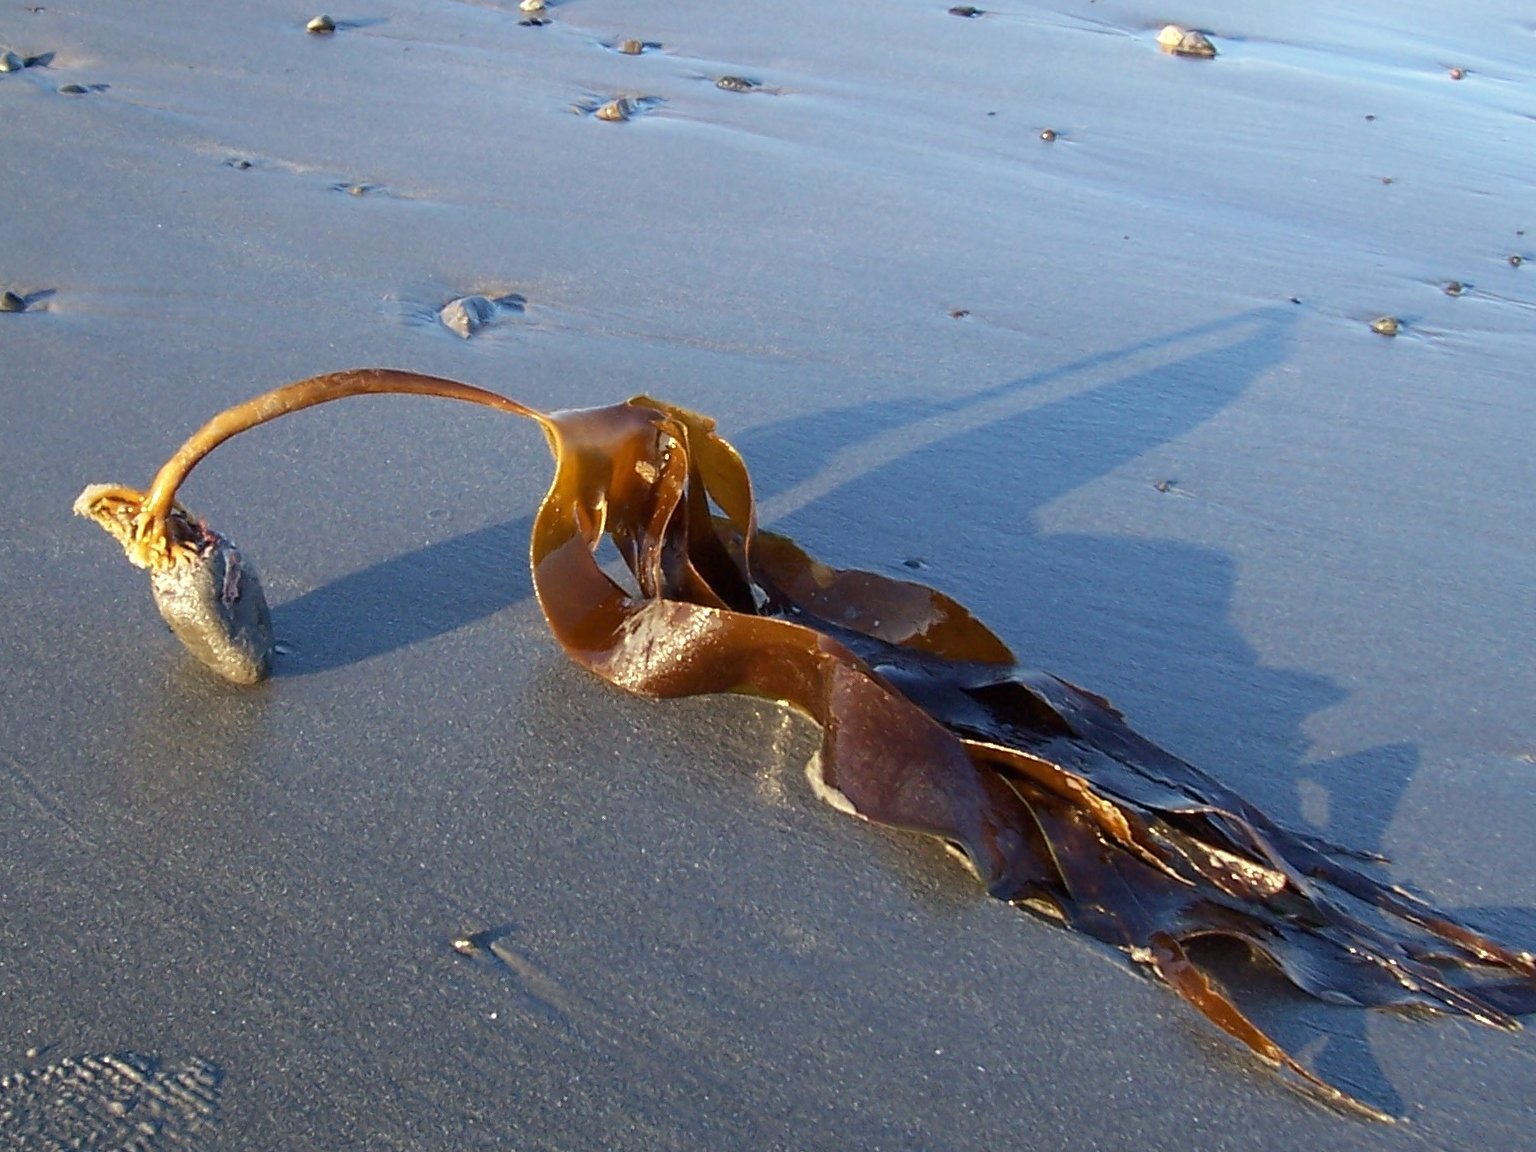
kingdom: Chromista
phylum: Ochrophyta
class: Phaeophyceae
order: Laminariales
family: Laminariaceae
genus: Laminaria
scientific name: Laminaria digitata
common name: Oarweed
